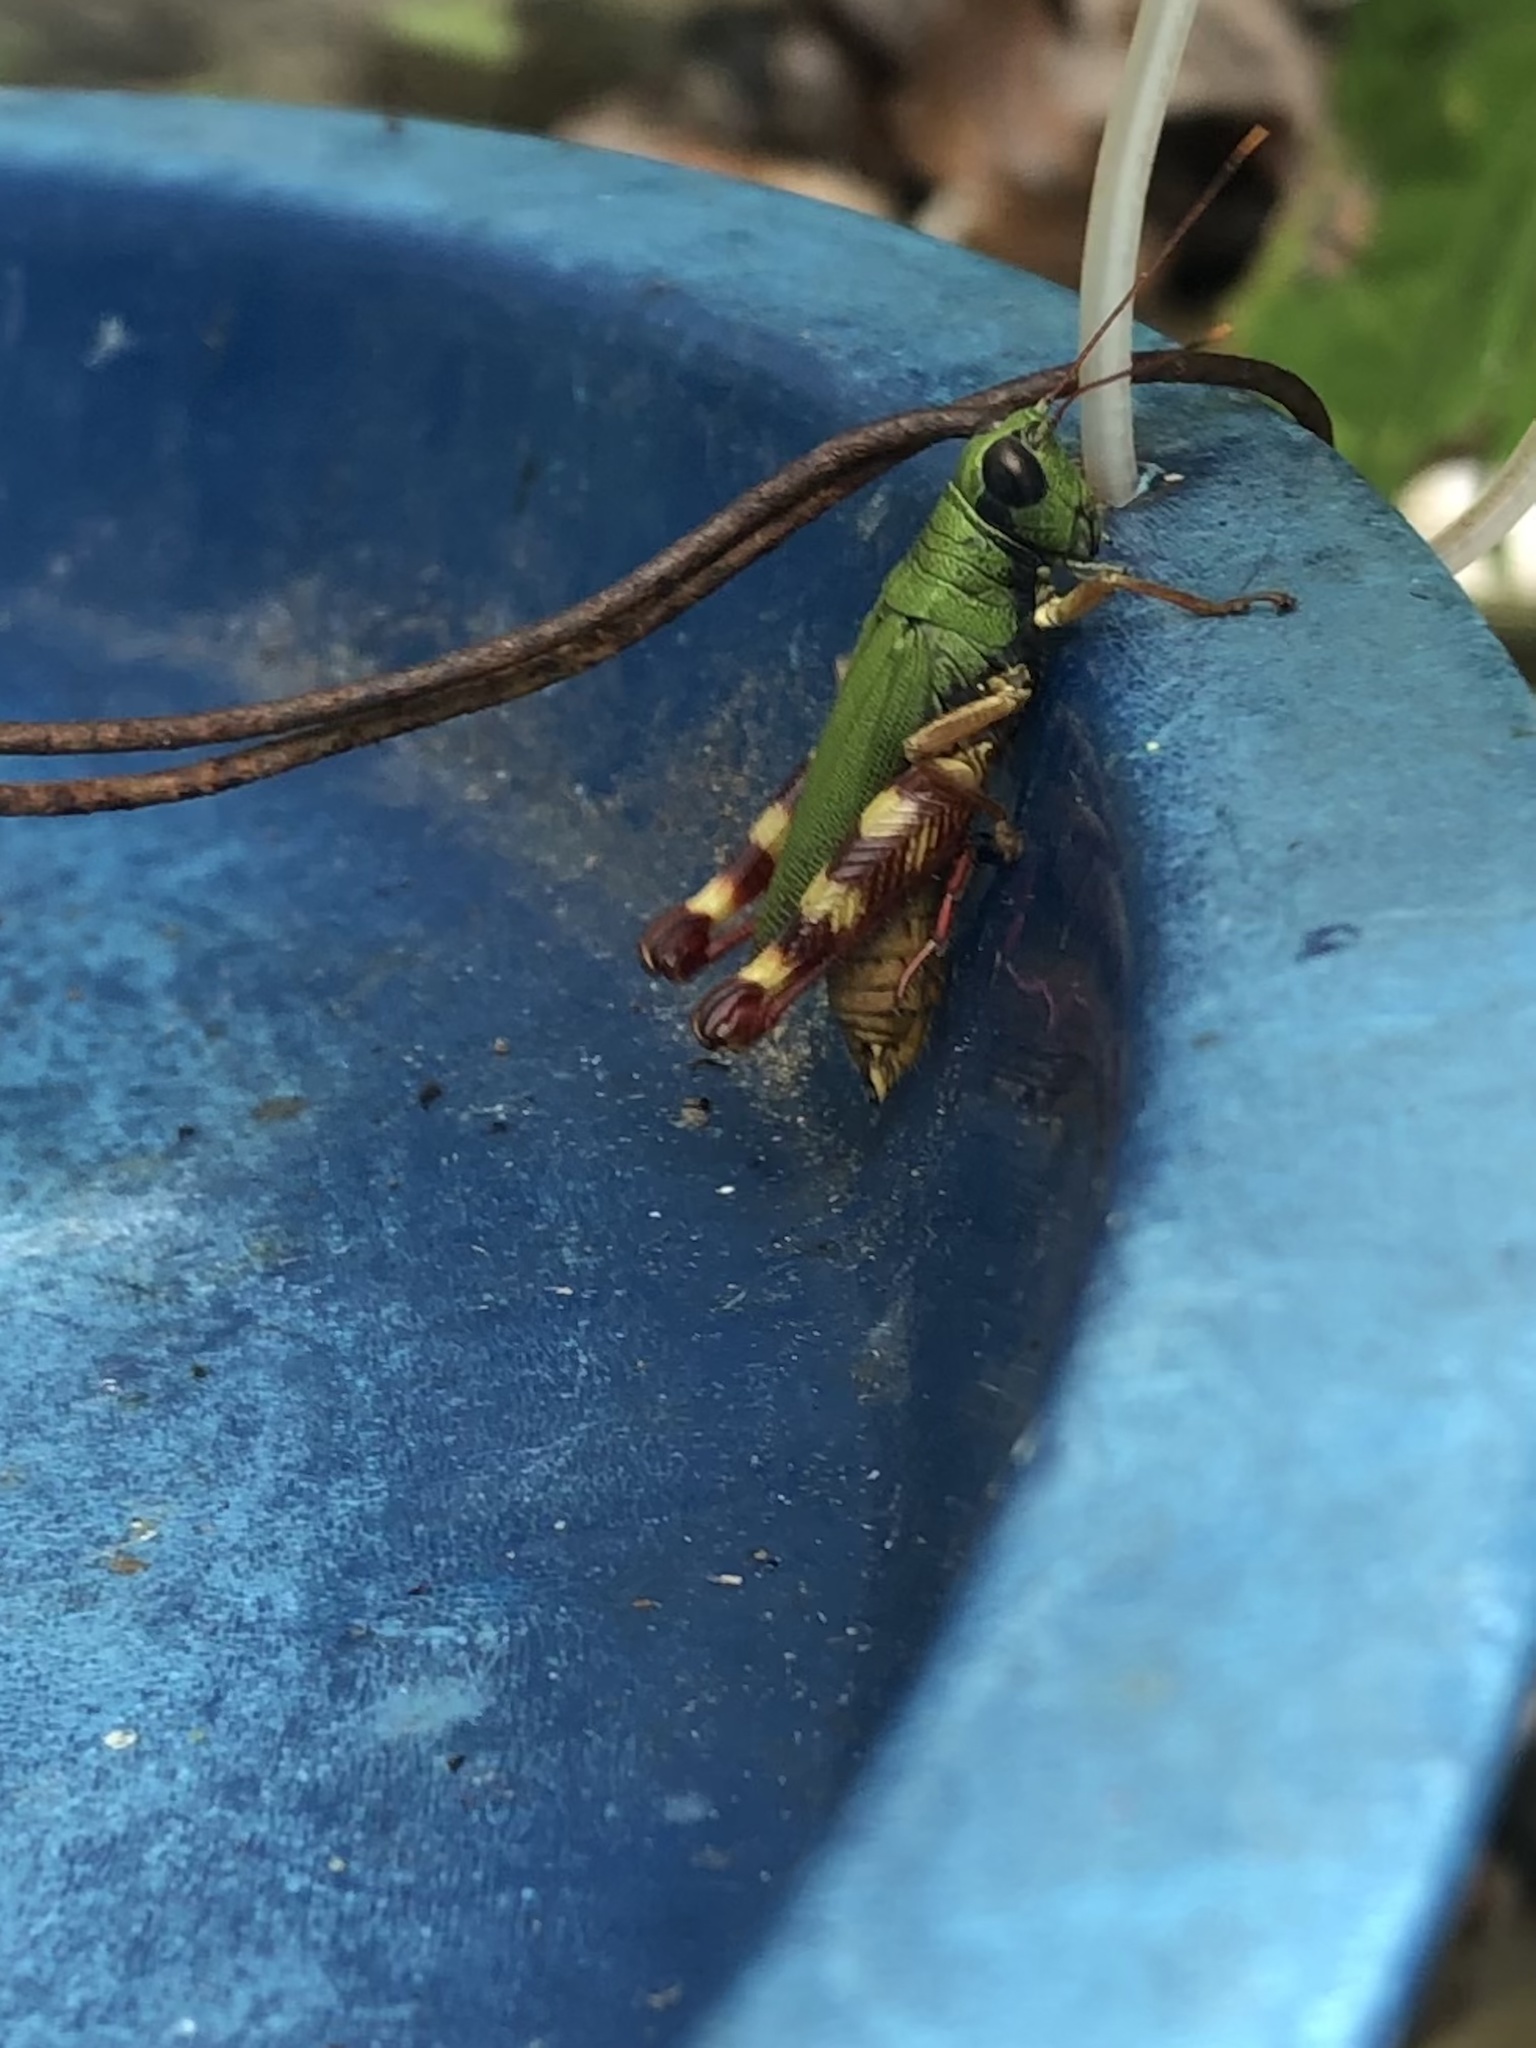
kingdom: Animalia
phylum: Arthropoda
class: Insecta
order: Orthoptera
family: Acrididae
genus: Poecilocloeus
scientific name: Poecilocloeus centralis
